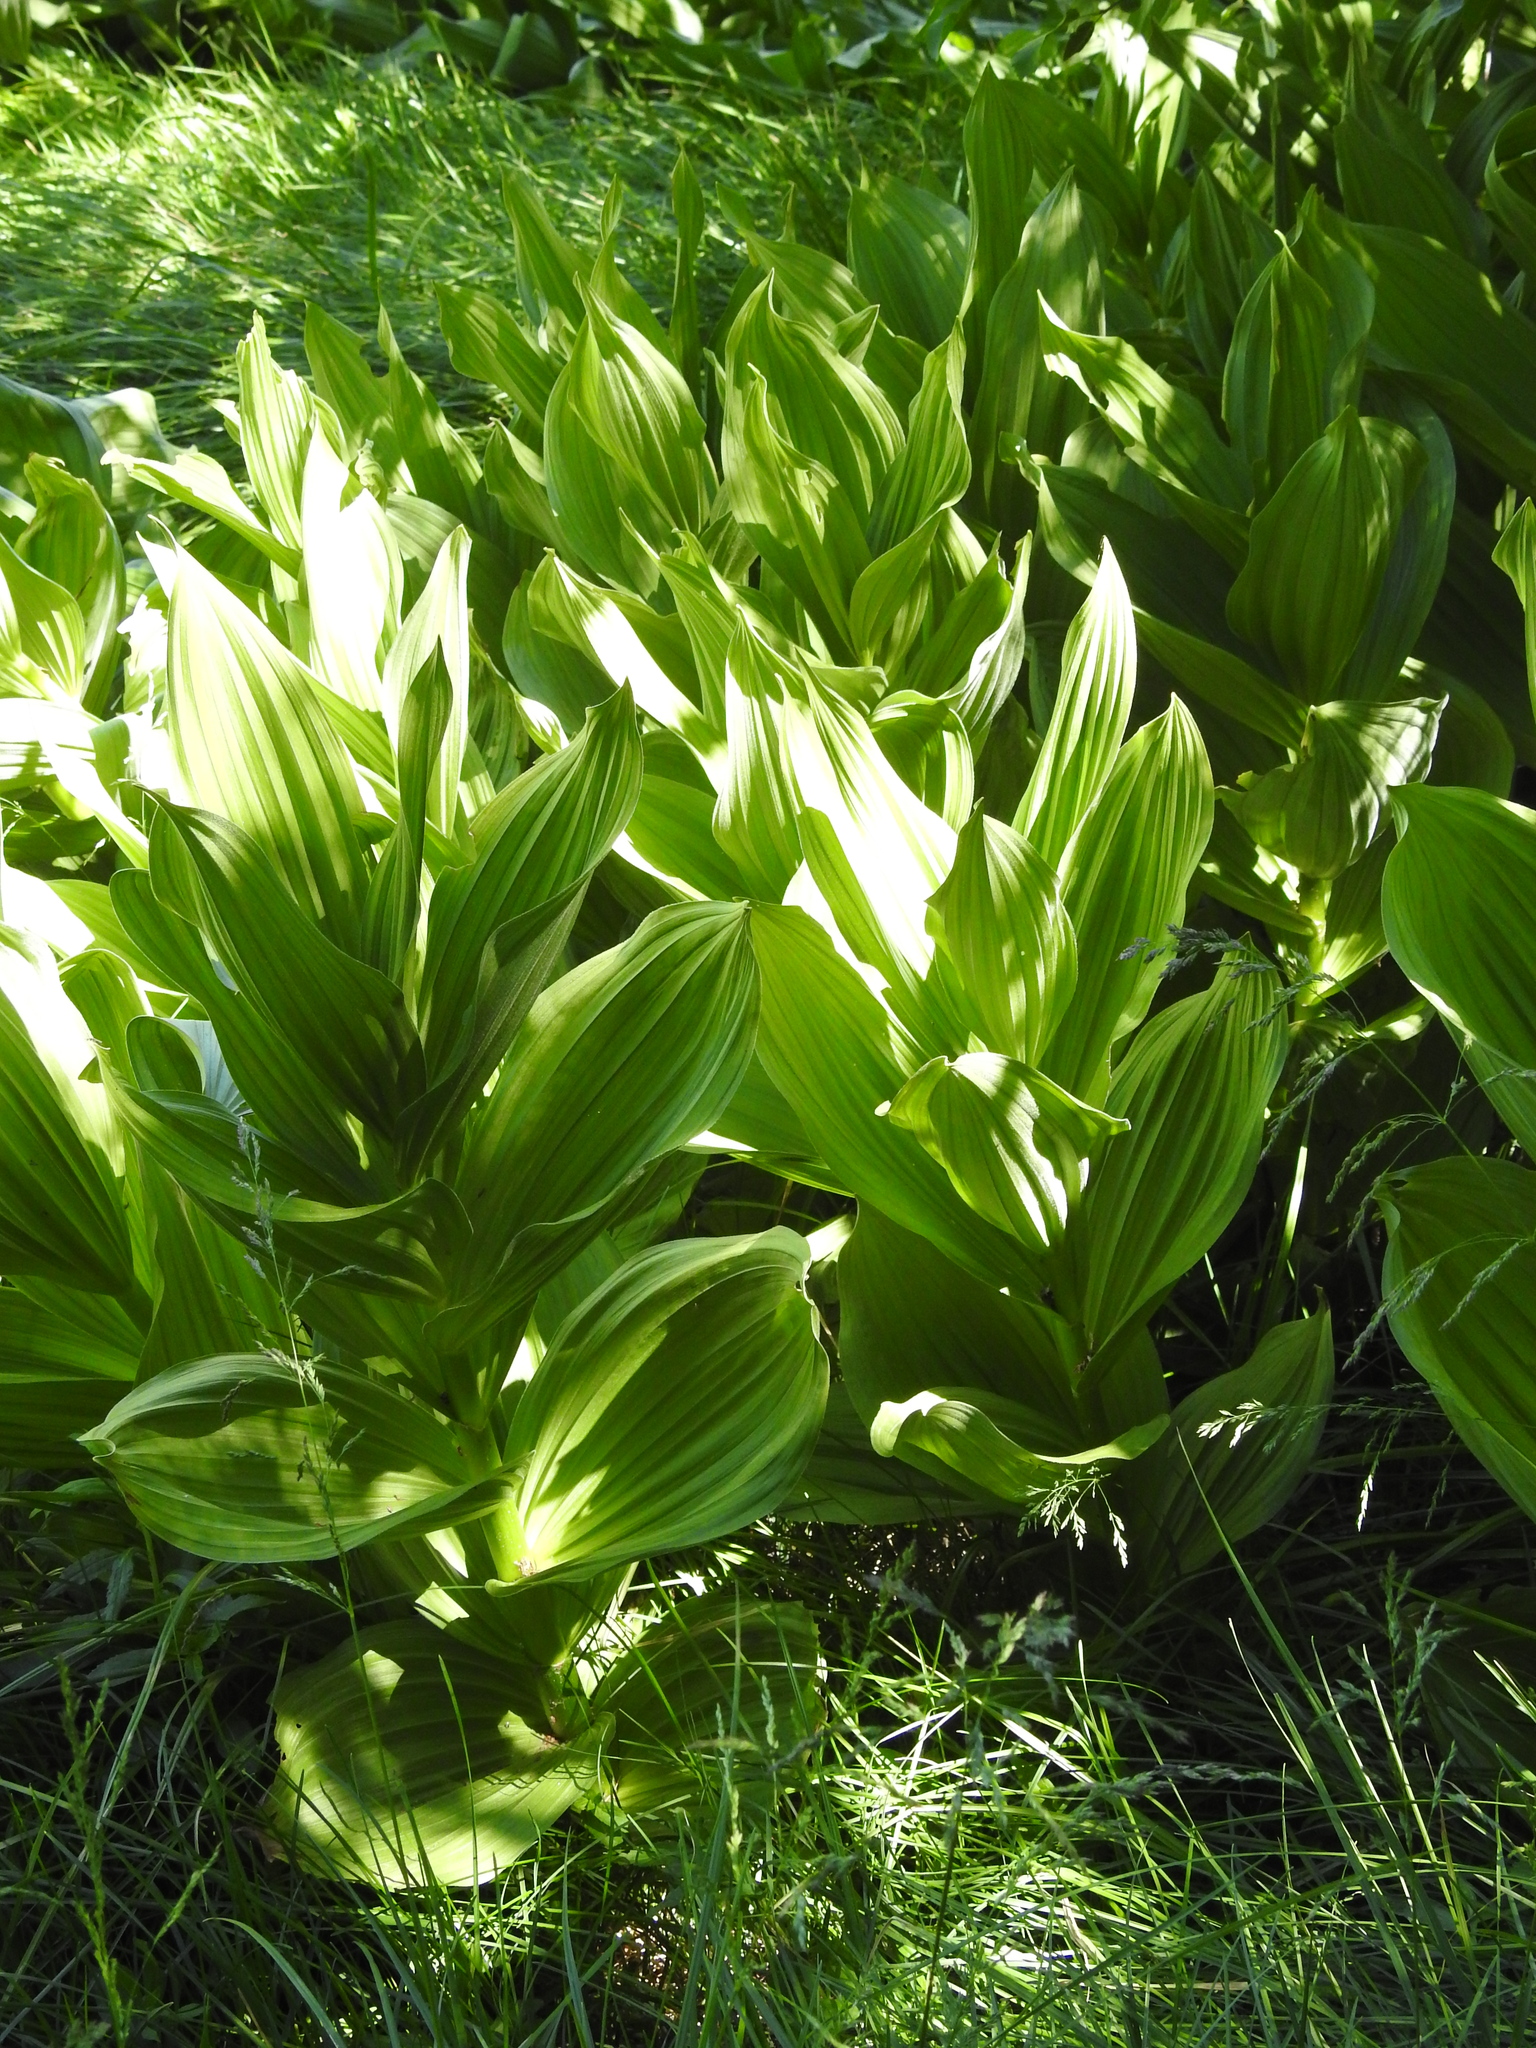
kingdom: Plantae
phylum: Tracheophyta
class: Liliopsida
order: Liliales
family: Melanthiaceae
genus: Veratrum
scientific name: Veratrum californicum
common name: California veratrum
